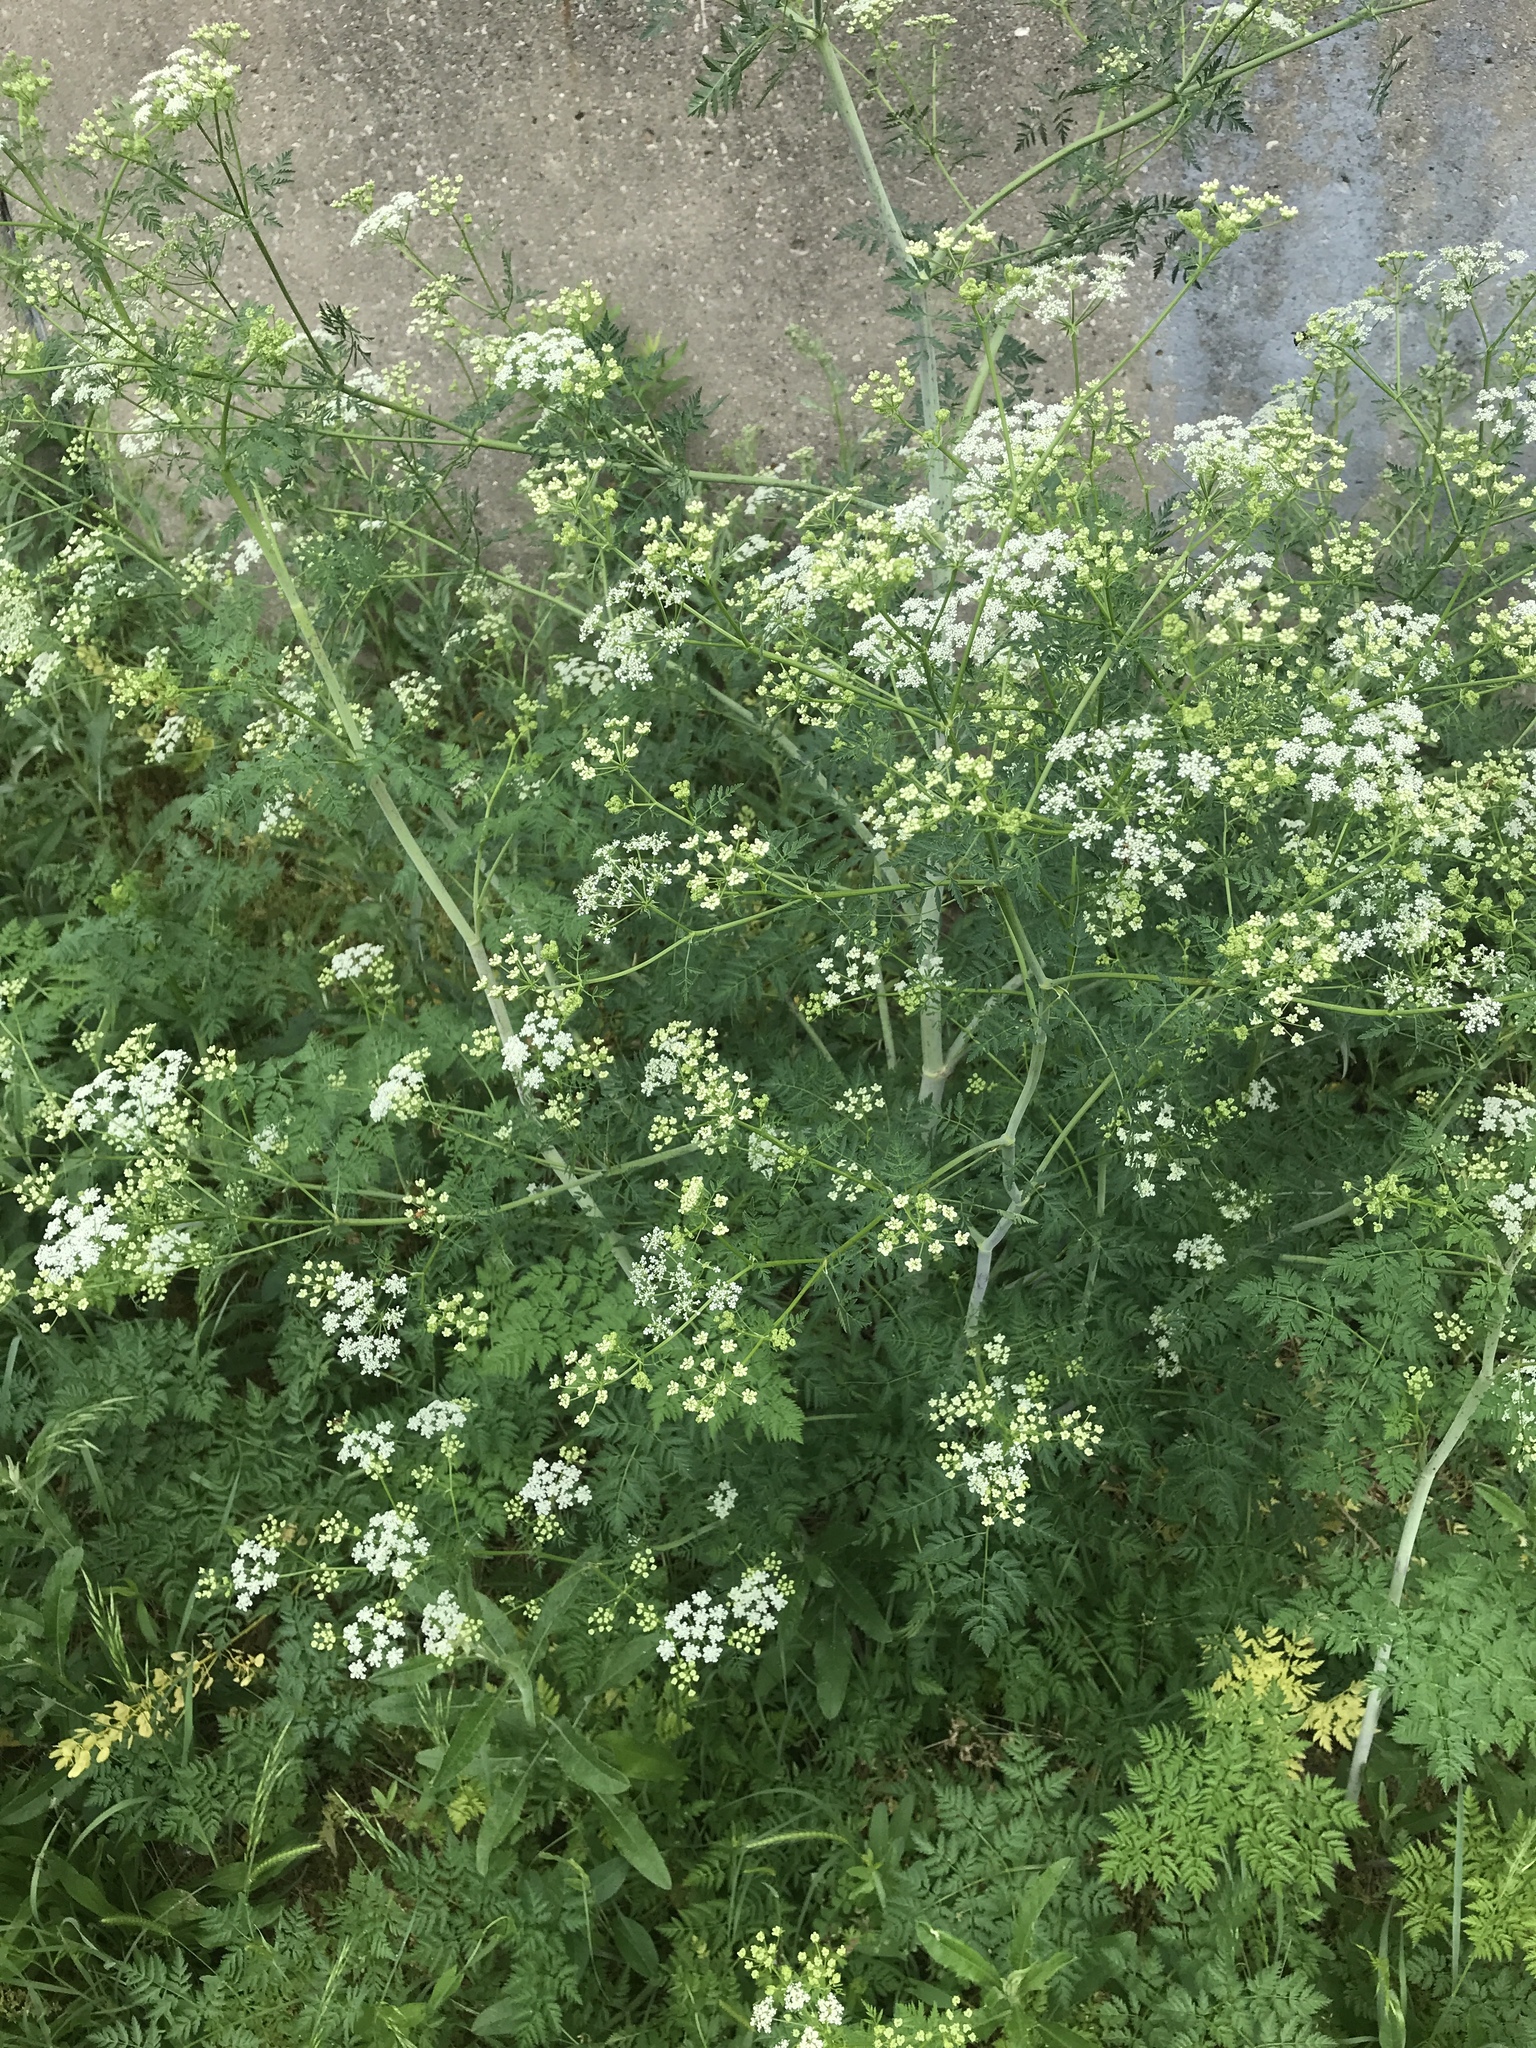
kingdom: Plantae
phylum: Tracheophyta
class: Magnoliopsida
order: Apiales
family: Apiaceae
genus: Conium
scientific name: Conium maculatum
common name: Hemlock
